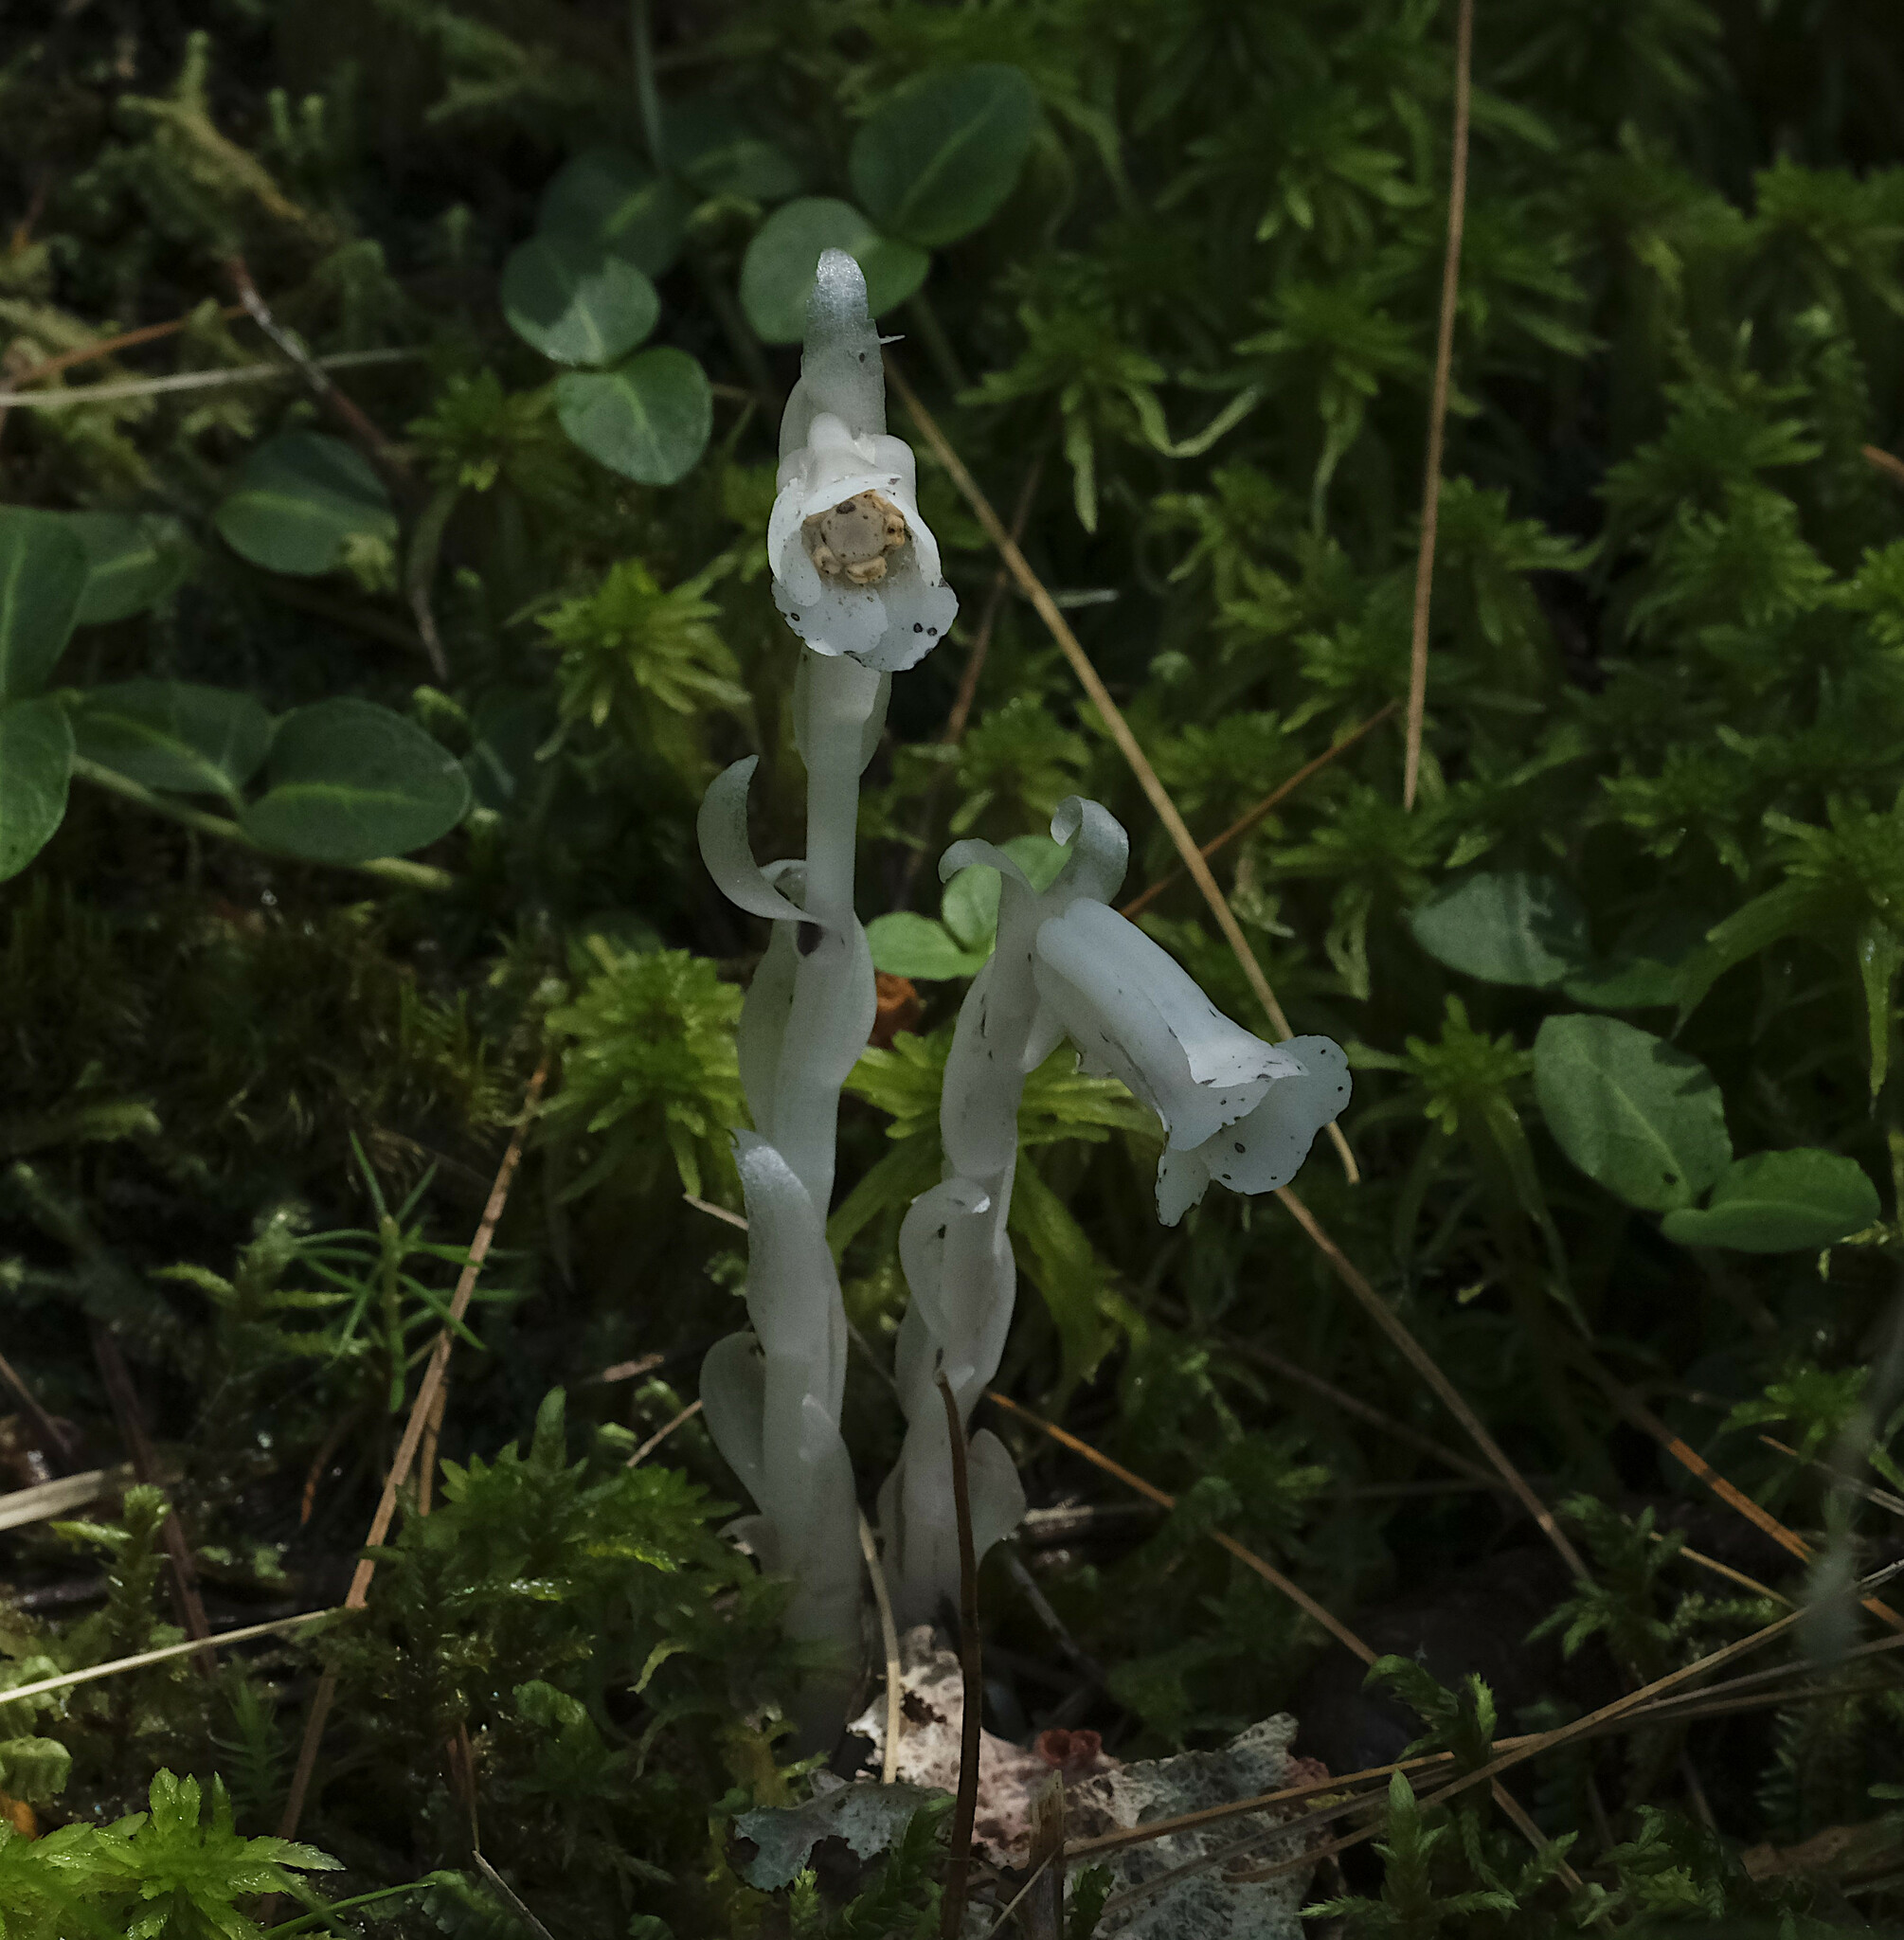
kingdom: Plantae
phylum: Tracheophyta
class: Magnoliopsida
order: Ericales
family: Ericaceae
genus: Monotropa
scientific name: Monotropa uniflora
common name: Convulsion root
